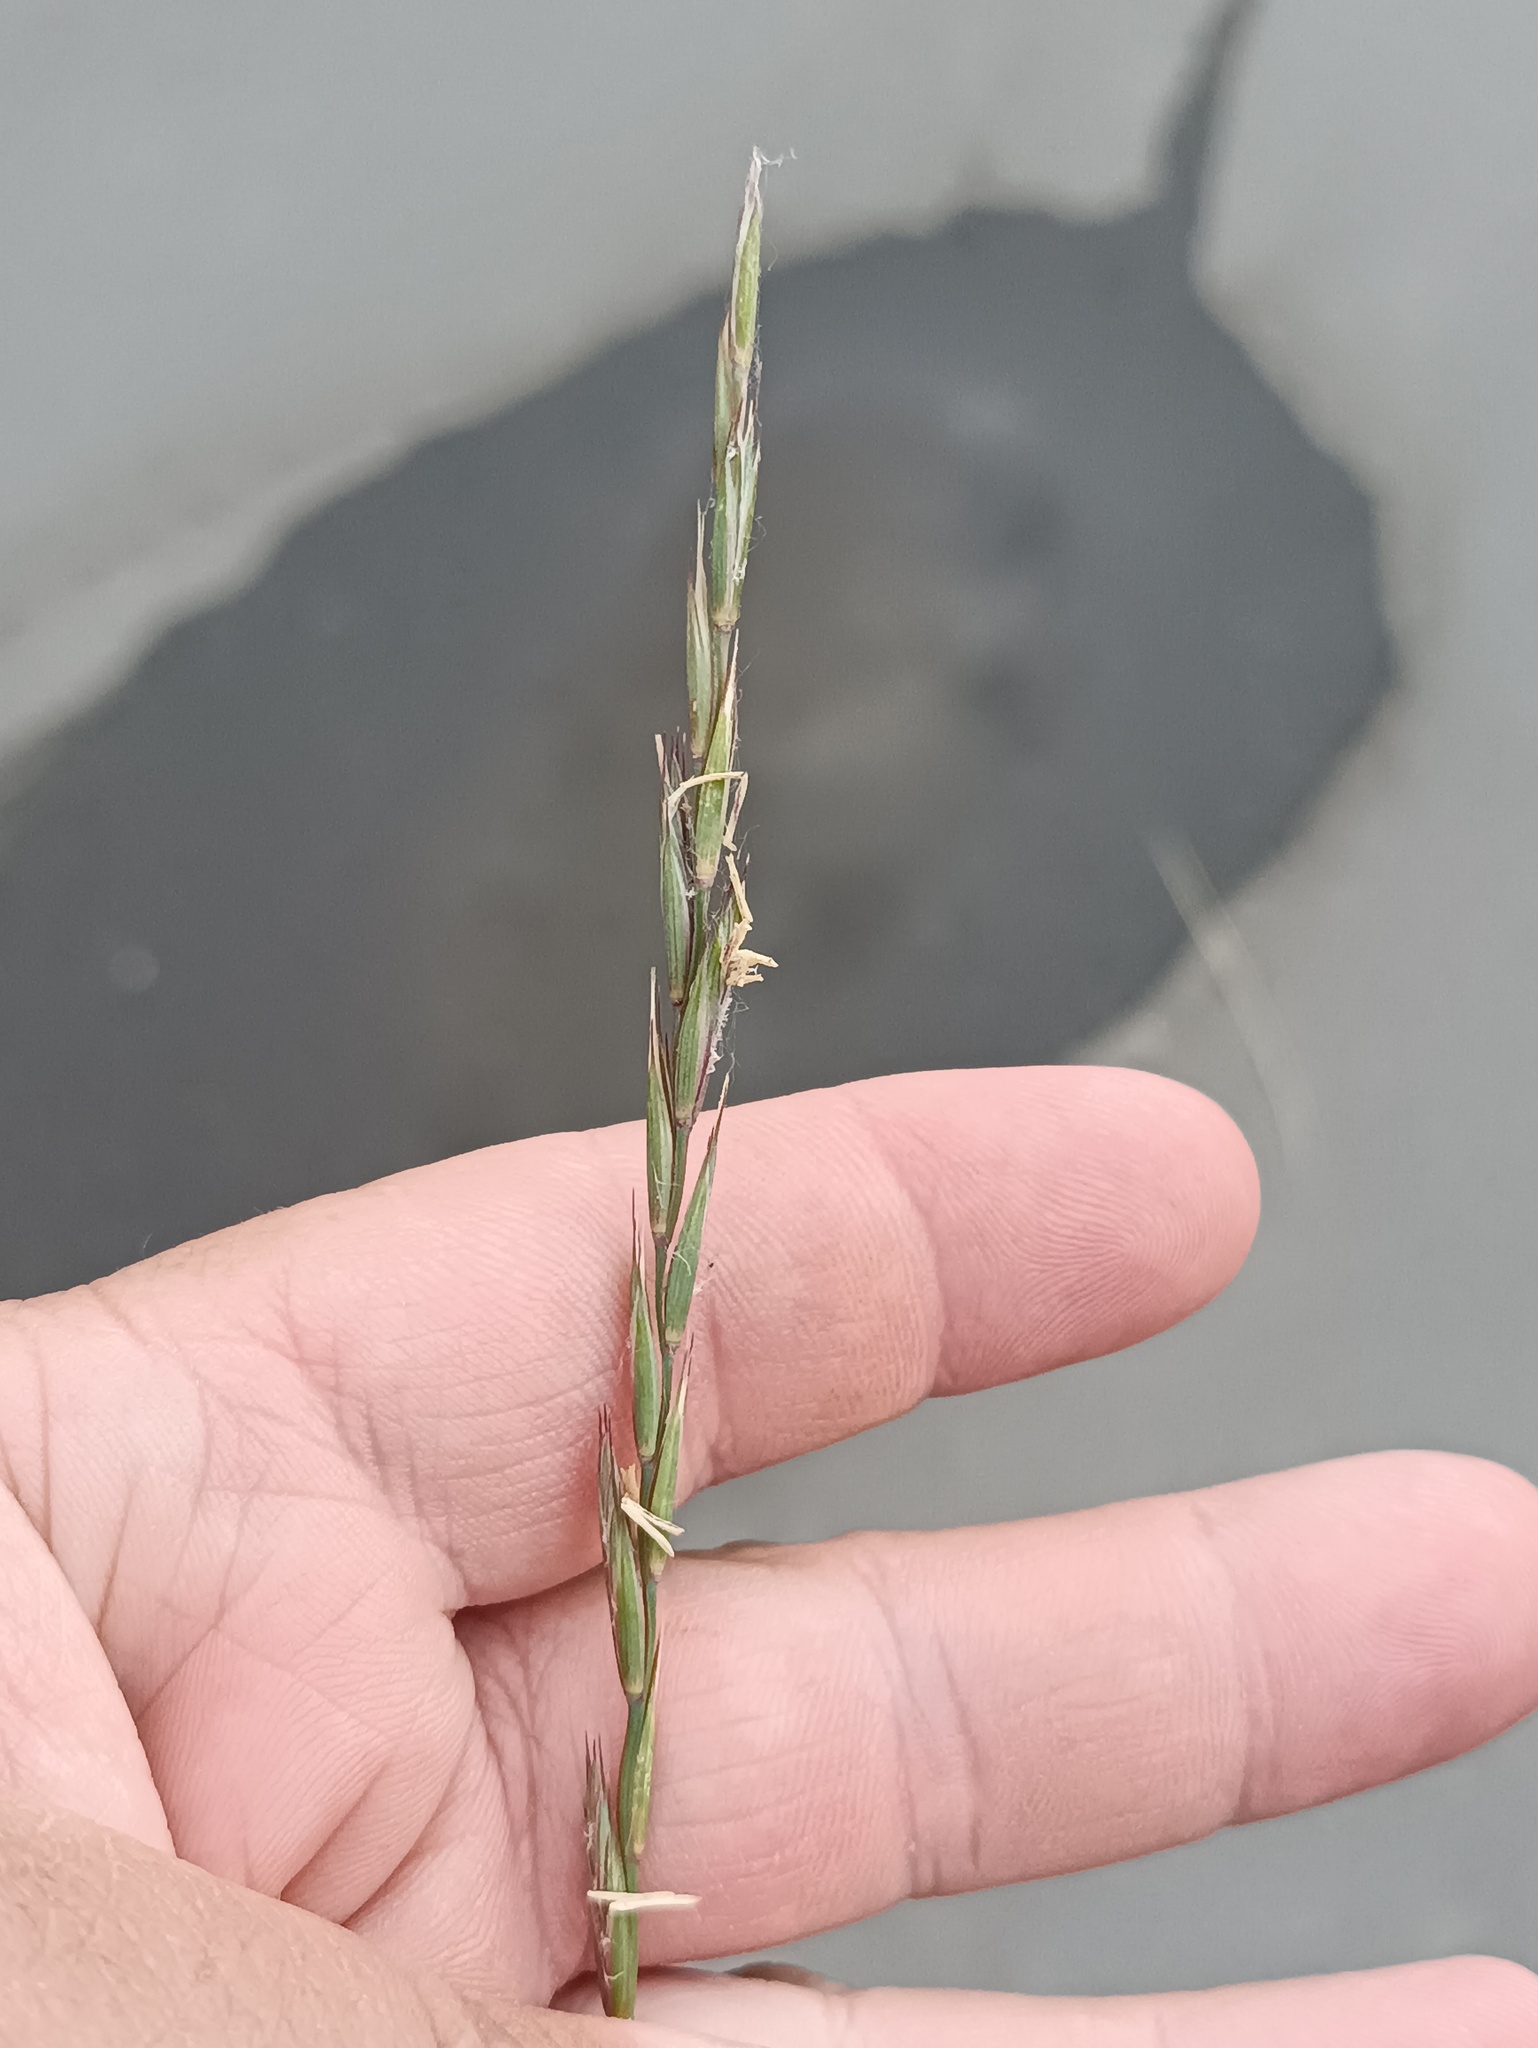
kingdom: Plantae
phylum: Tracheophyta
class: Liliopsida
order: Poales
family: Poaceae
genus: Elymus
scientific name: Elymus repens
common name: Quackgrass
